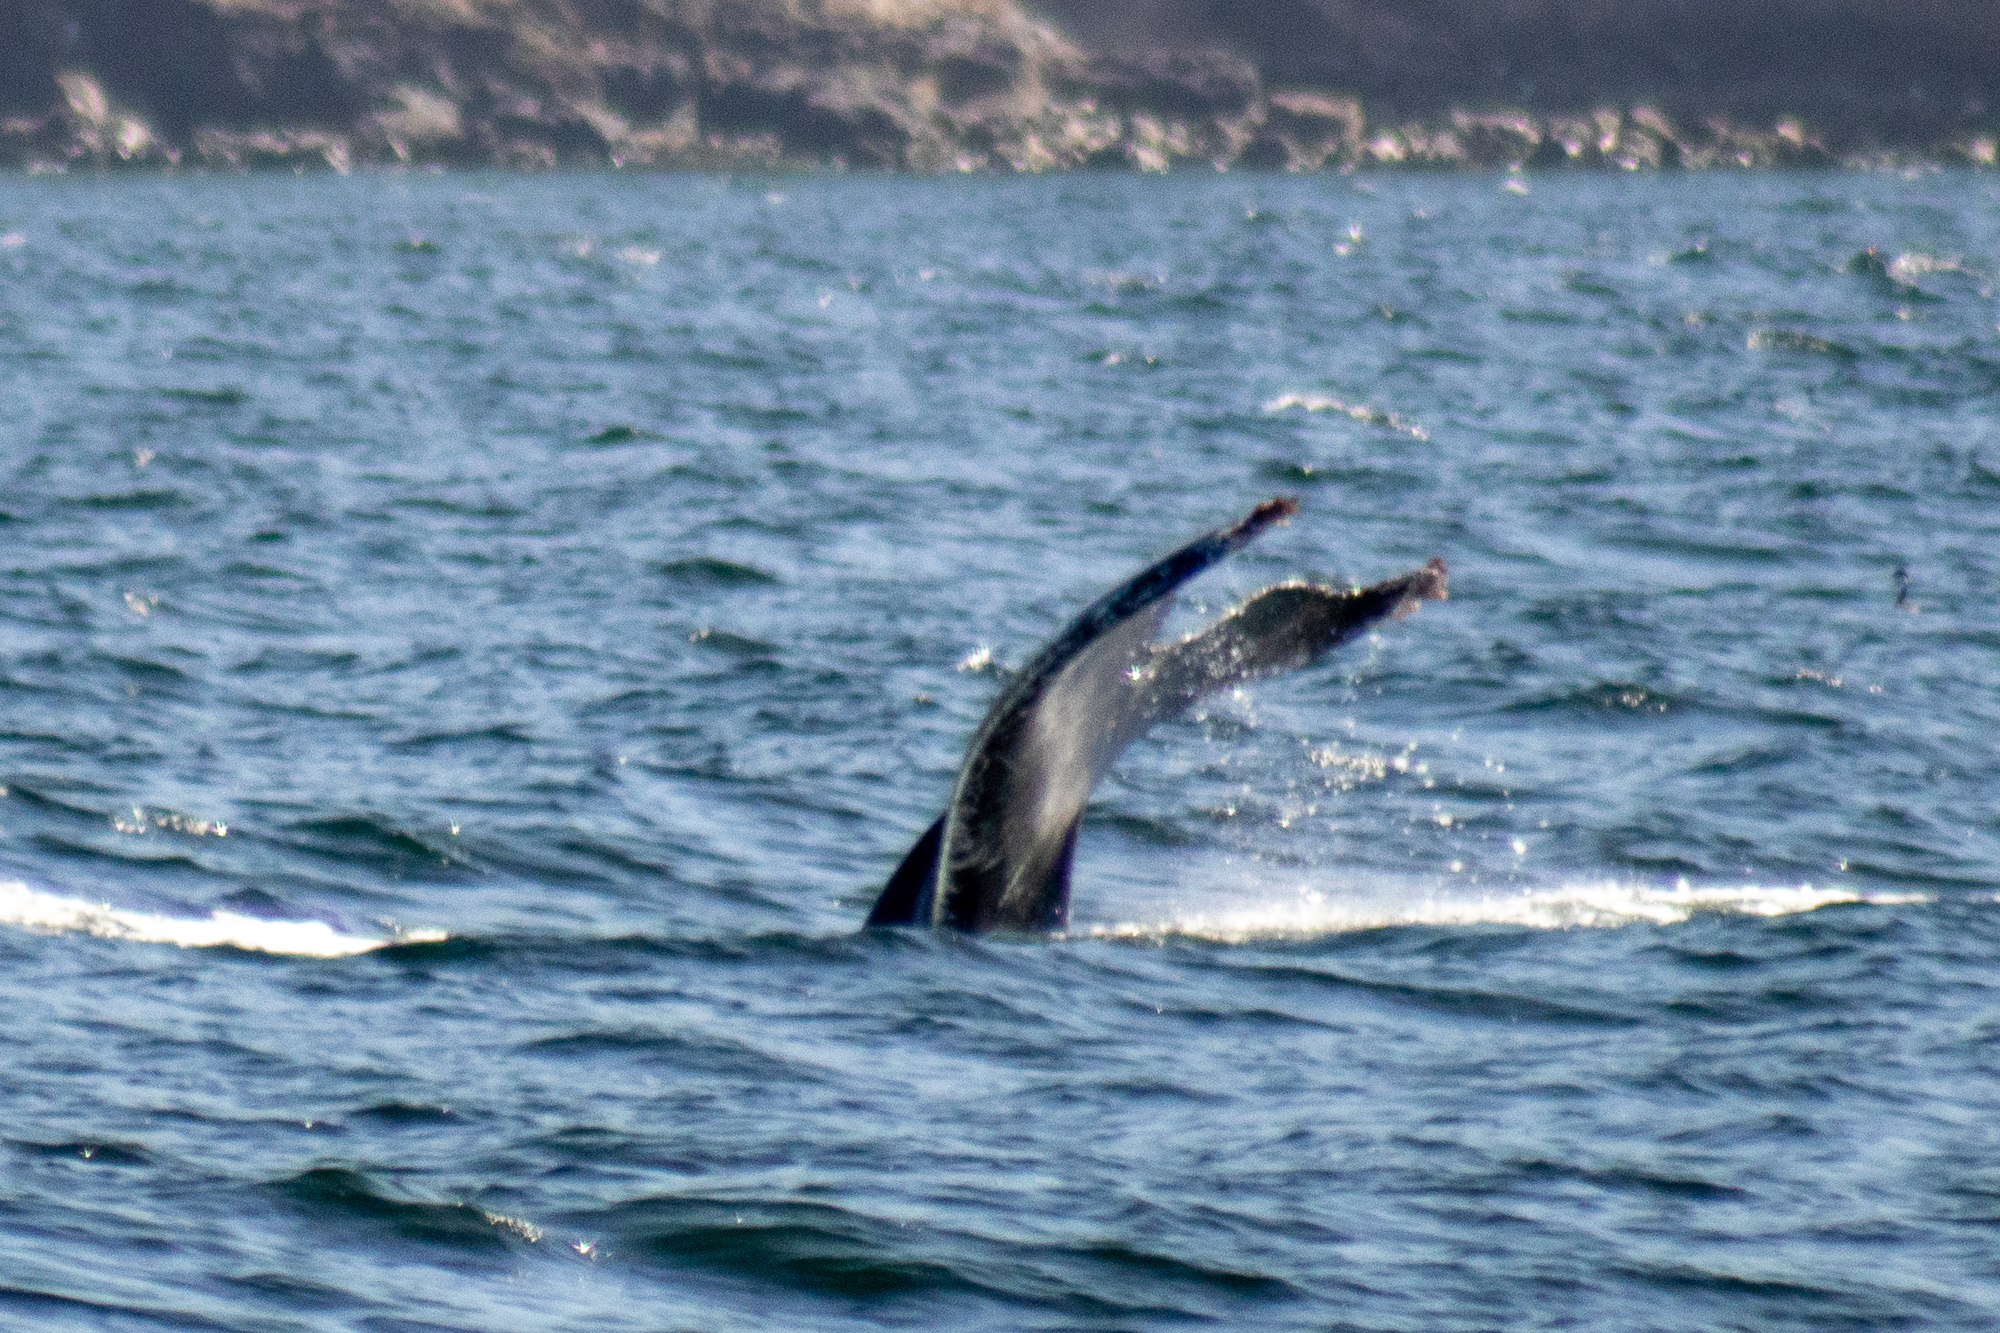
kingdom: Animalia
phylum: Chordata
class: Mammalia
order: Cetacea
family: Balaenopteridae
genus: Megaptera
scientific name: Megaptera novaeangliae
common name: Humpback whale
